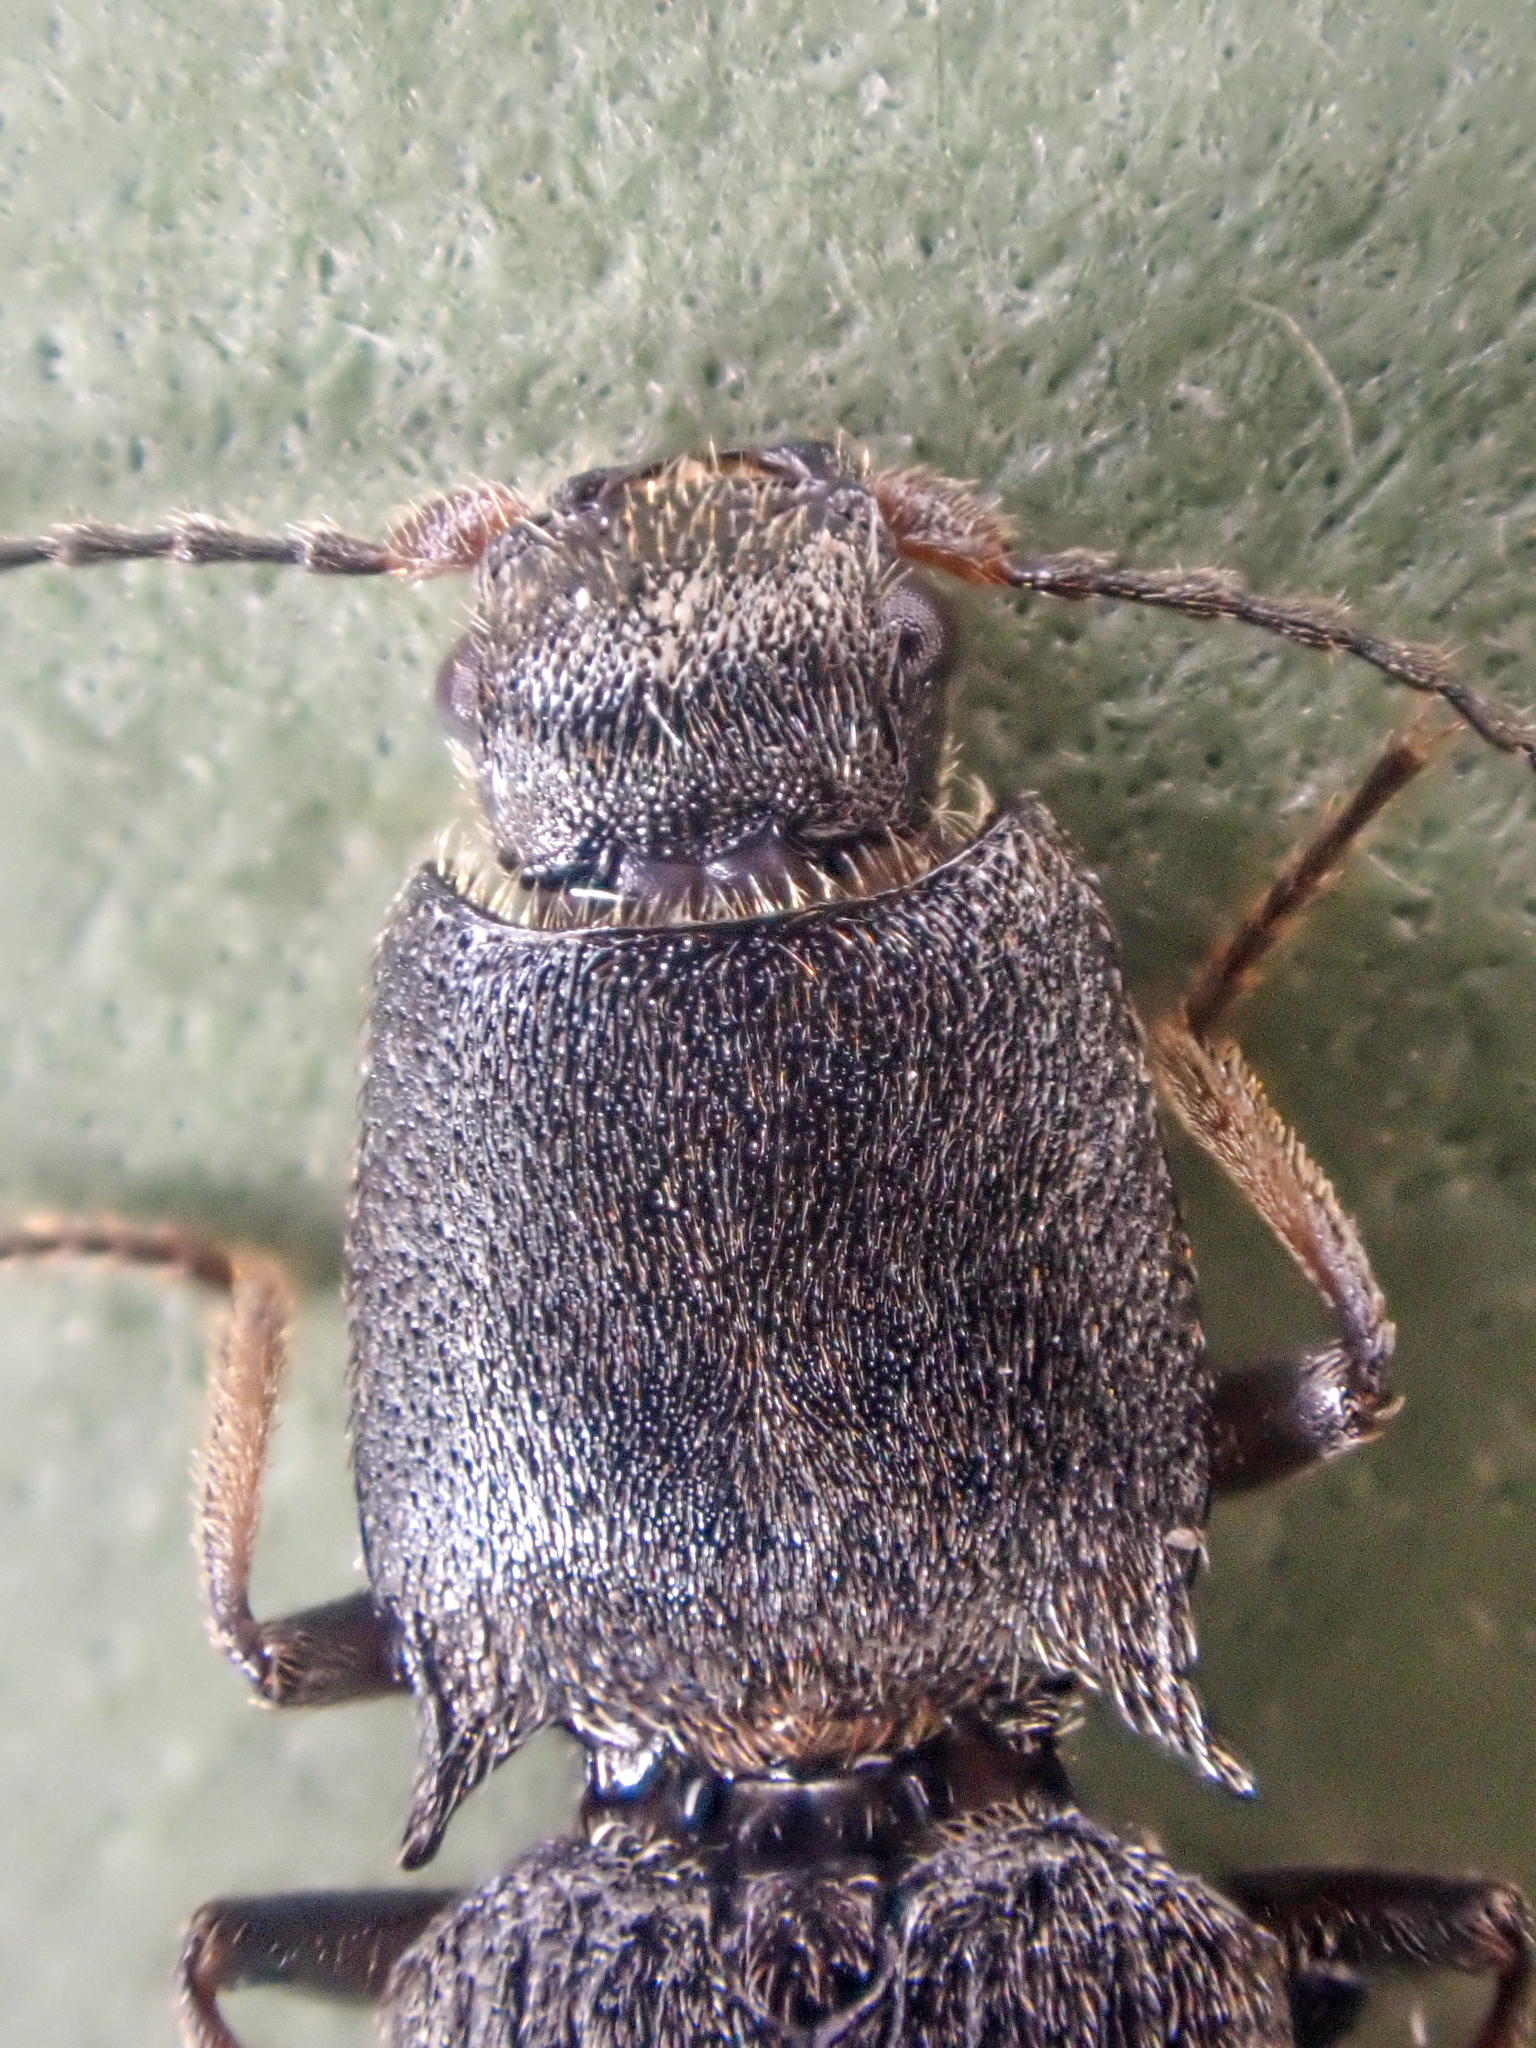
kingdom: Animalia
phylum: Arthropoda
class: Insecta
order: Coleoptera
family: Elateridae
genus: Ligmargus
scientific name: Ligmargus funebris
